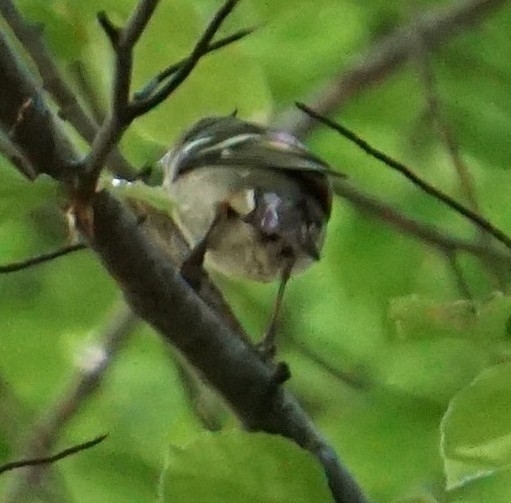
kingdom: Animalia
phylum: Chordata
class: Aves
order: Passeriformes
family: Fringillidae
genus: Fringilla
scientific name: Fringilla coelebs
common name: Common chaffinch
